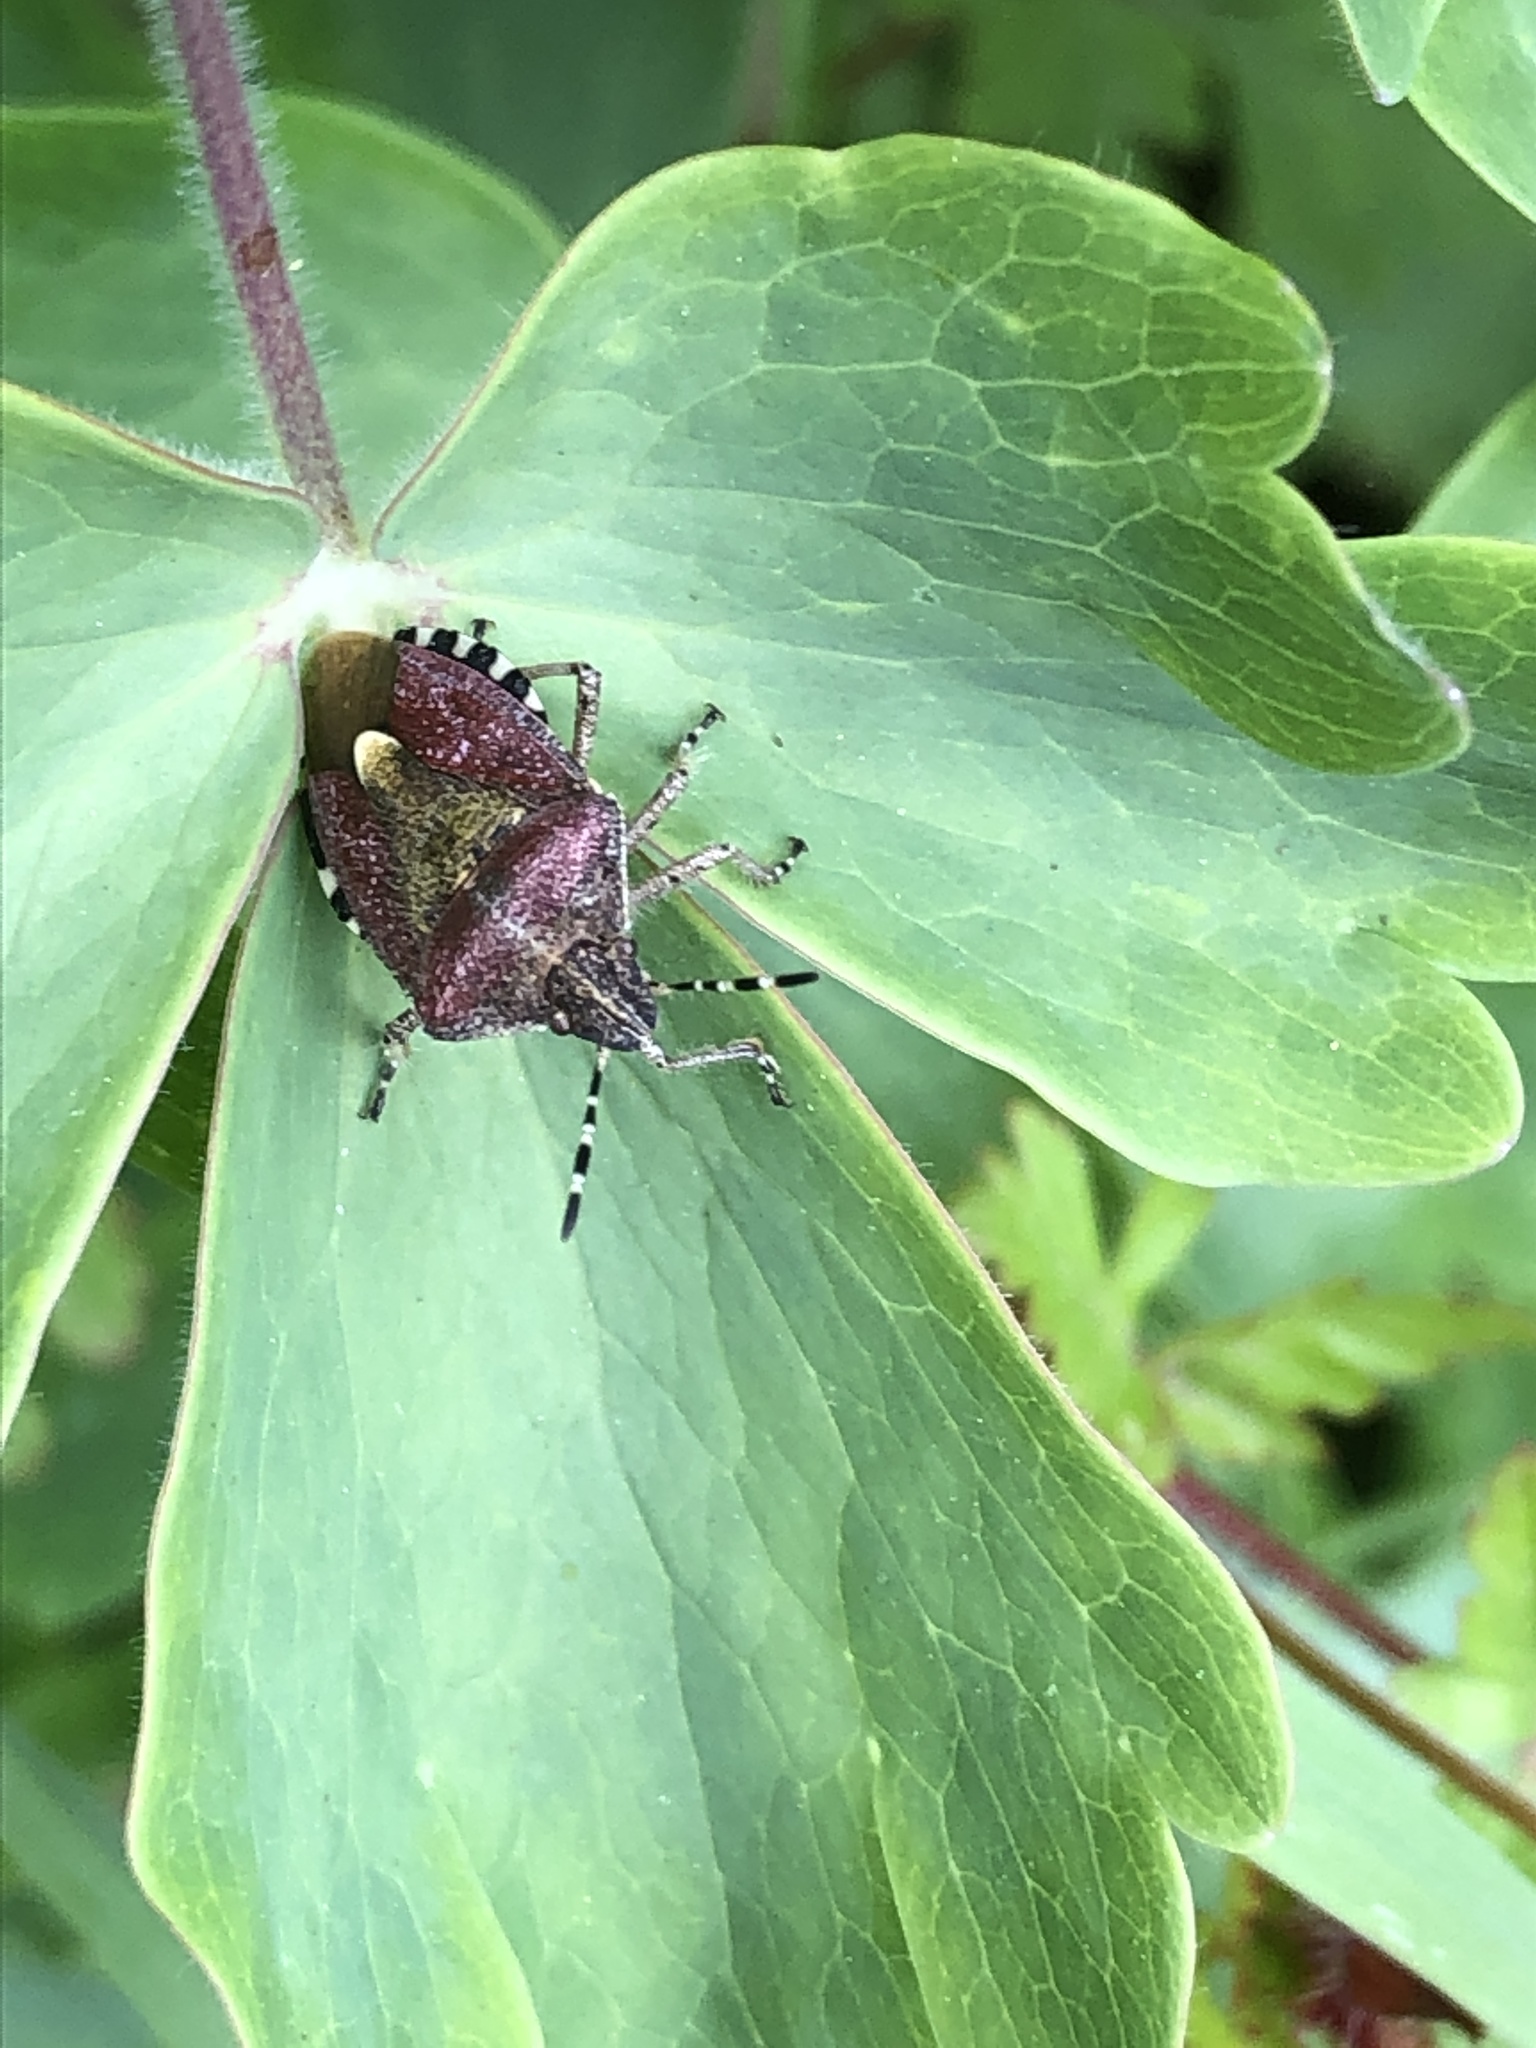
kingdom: Animalia
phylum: Arthropoda
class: Insecta
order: Hemiptera
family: Pentatomidae
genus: Dolycoris
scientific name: Dolycoris baccarum
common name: Sloe bug
